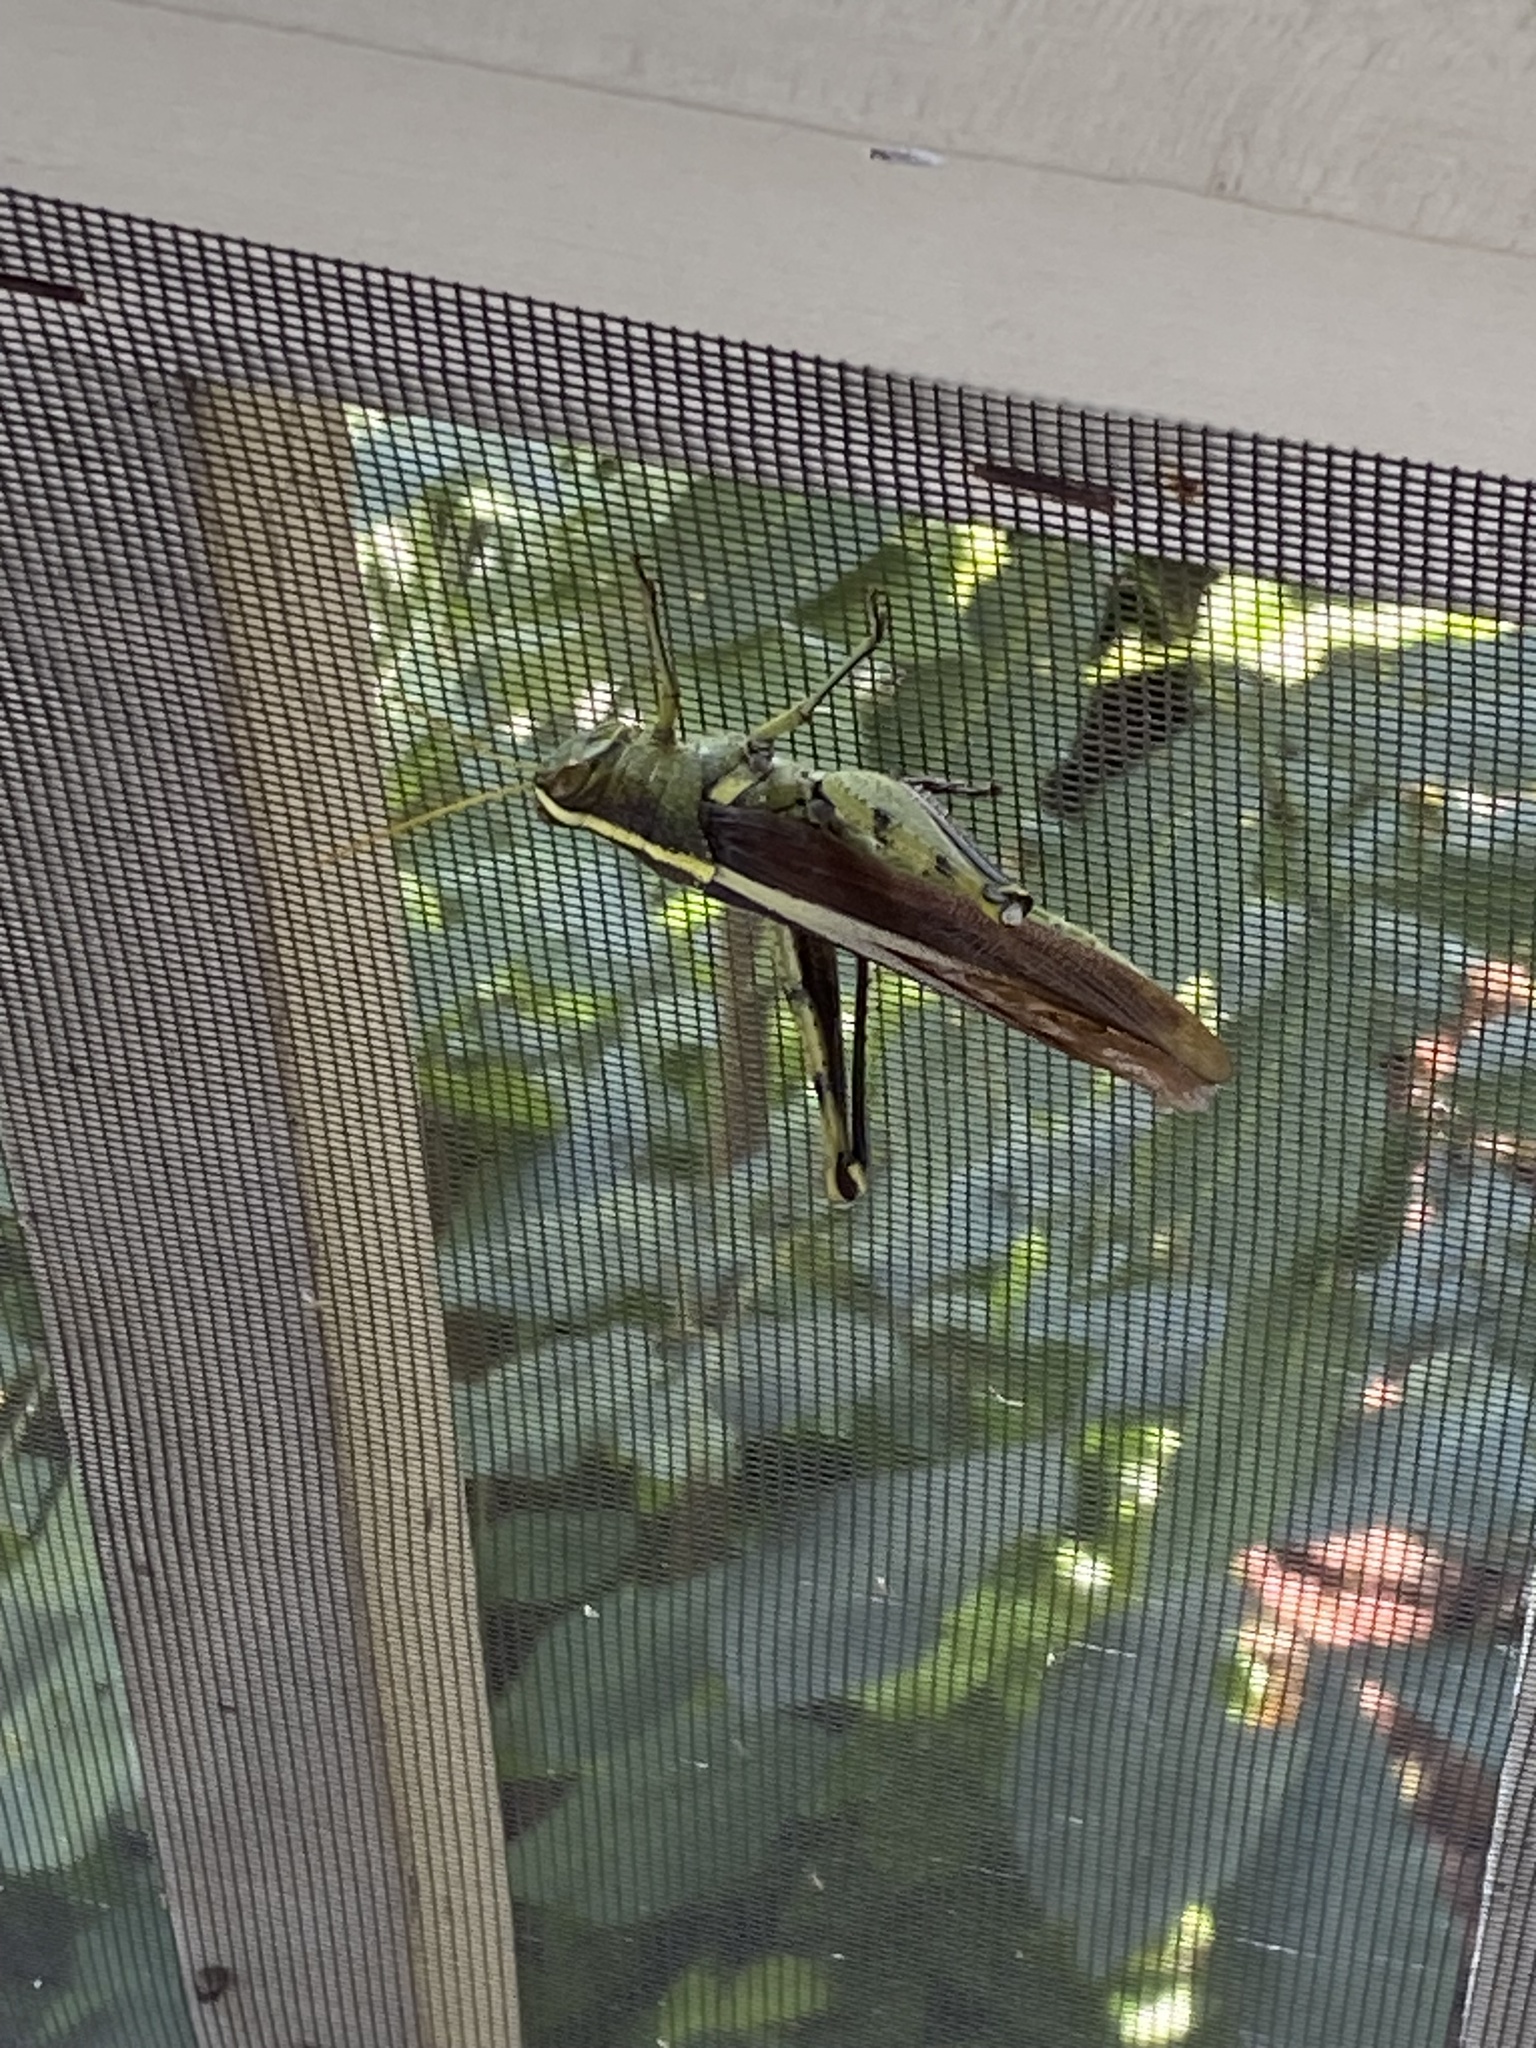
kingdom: Animalia
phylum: Arthropoda
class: Insecta
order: Orthoptera
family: Acrididae
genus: Schistocerca
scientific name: Schistocerca obscura
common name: Obscure bird grasshopper
